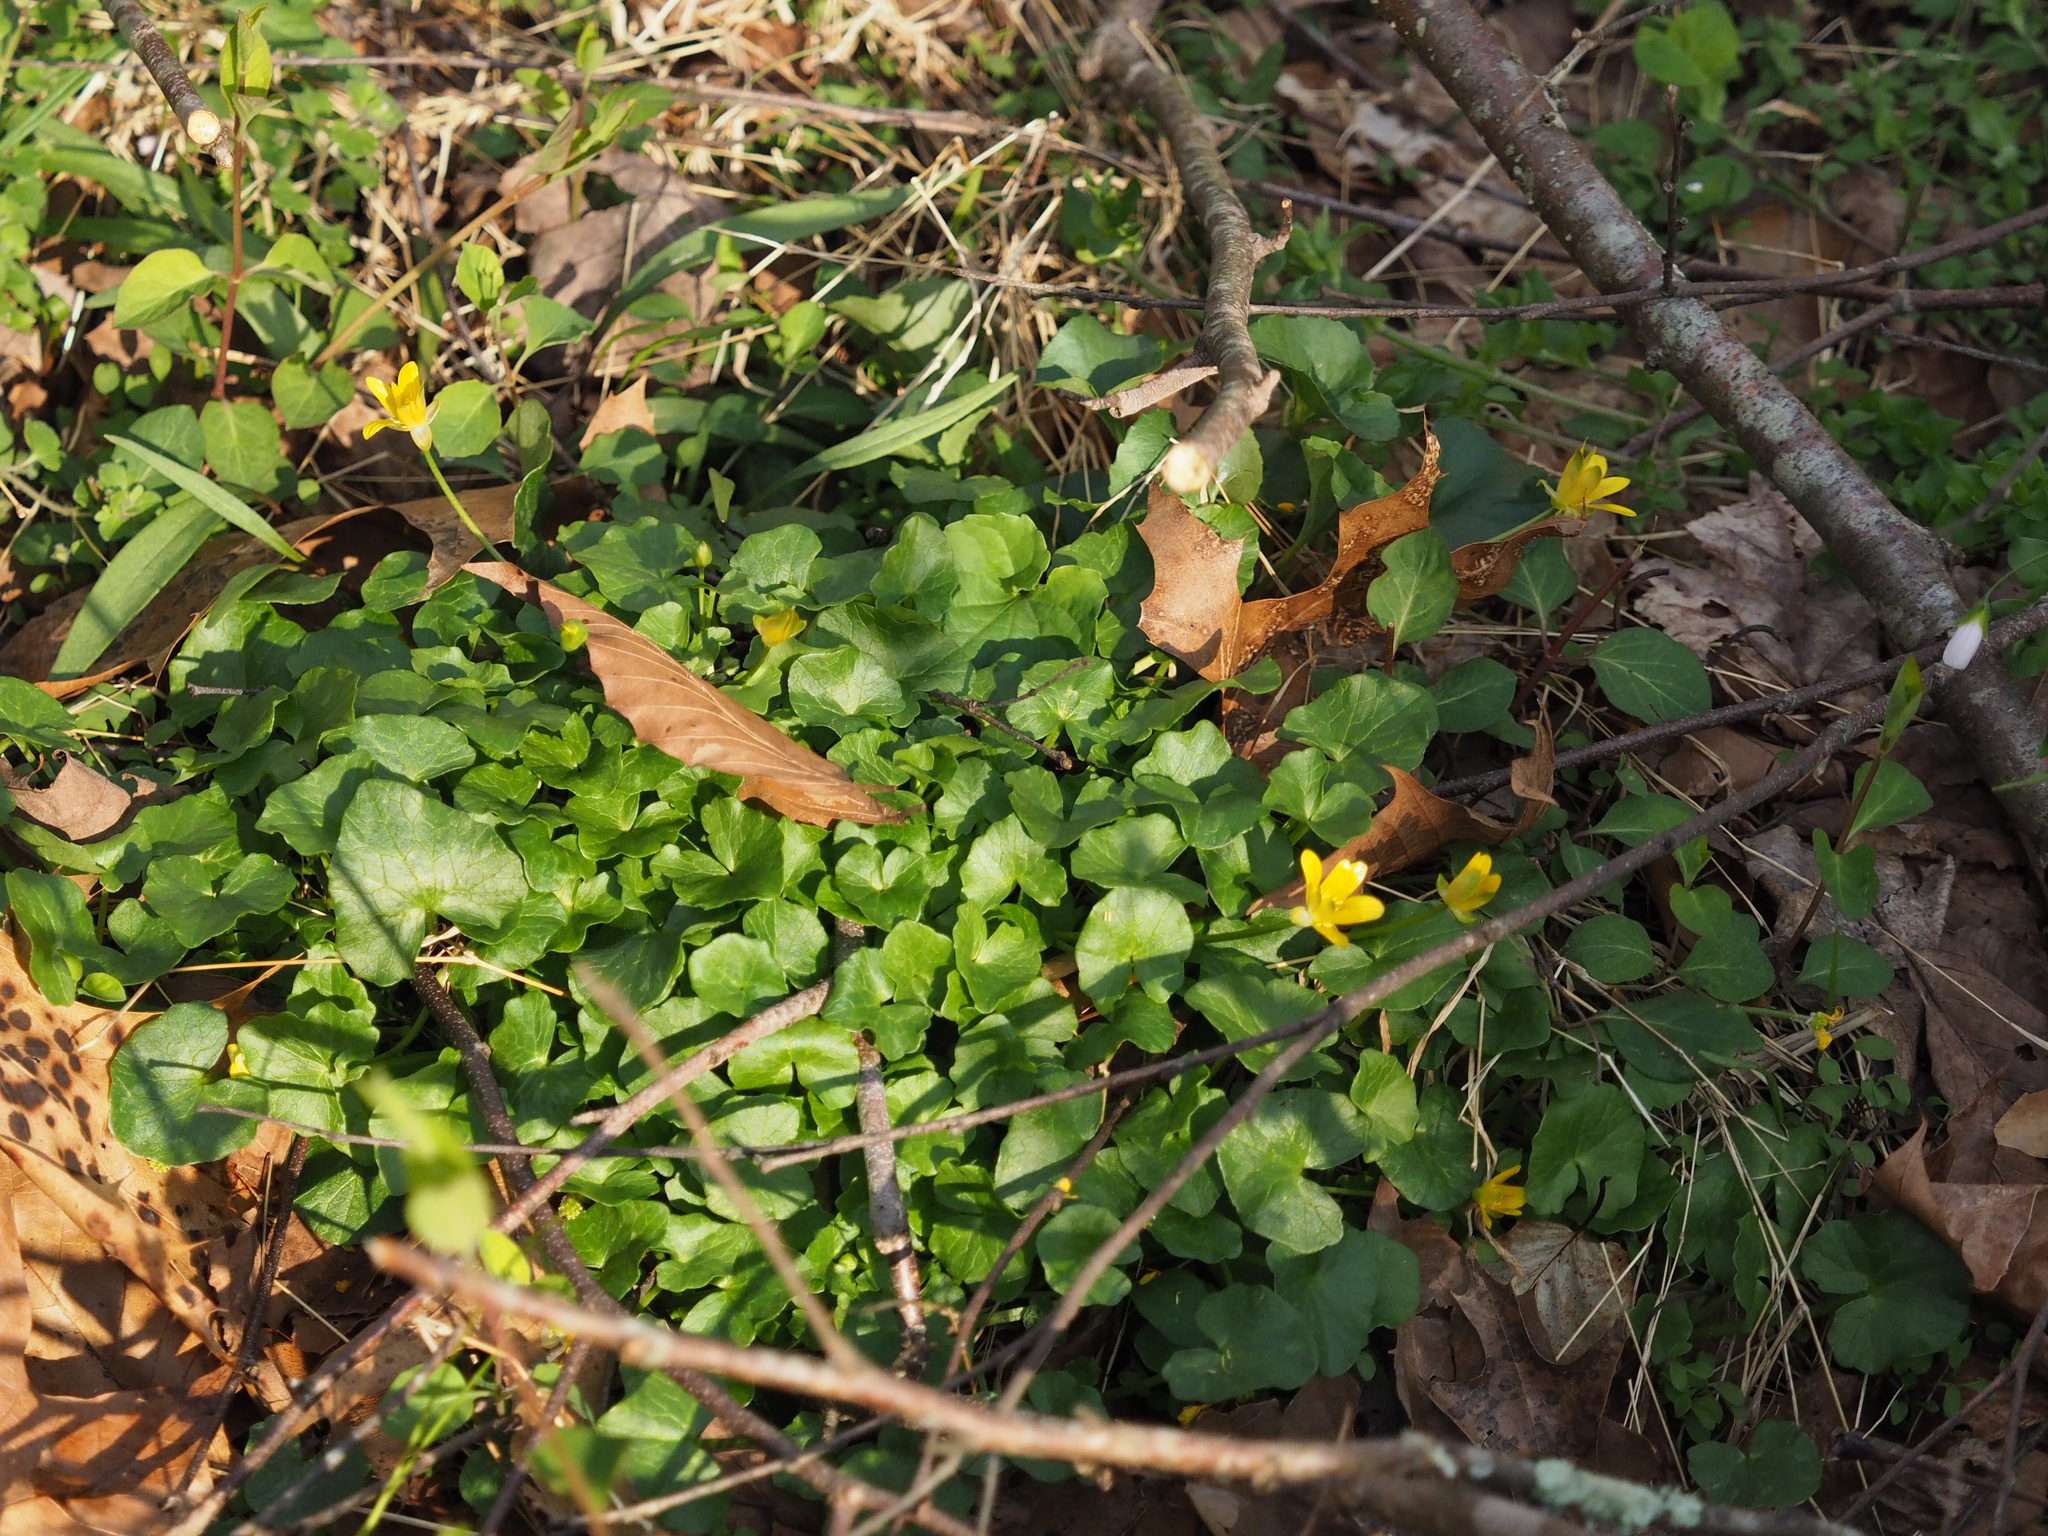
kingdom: Plantae
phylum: Tracheophyta
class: Magnoliopsida
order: Ranunculales
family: Ranunculaceae
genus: Ficaria
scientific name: Ficaria verna
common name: Lesser celandine
